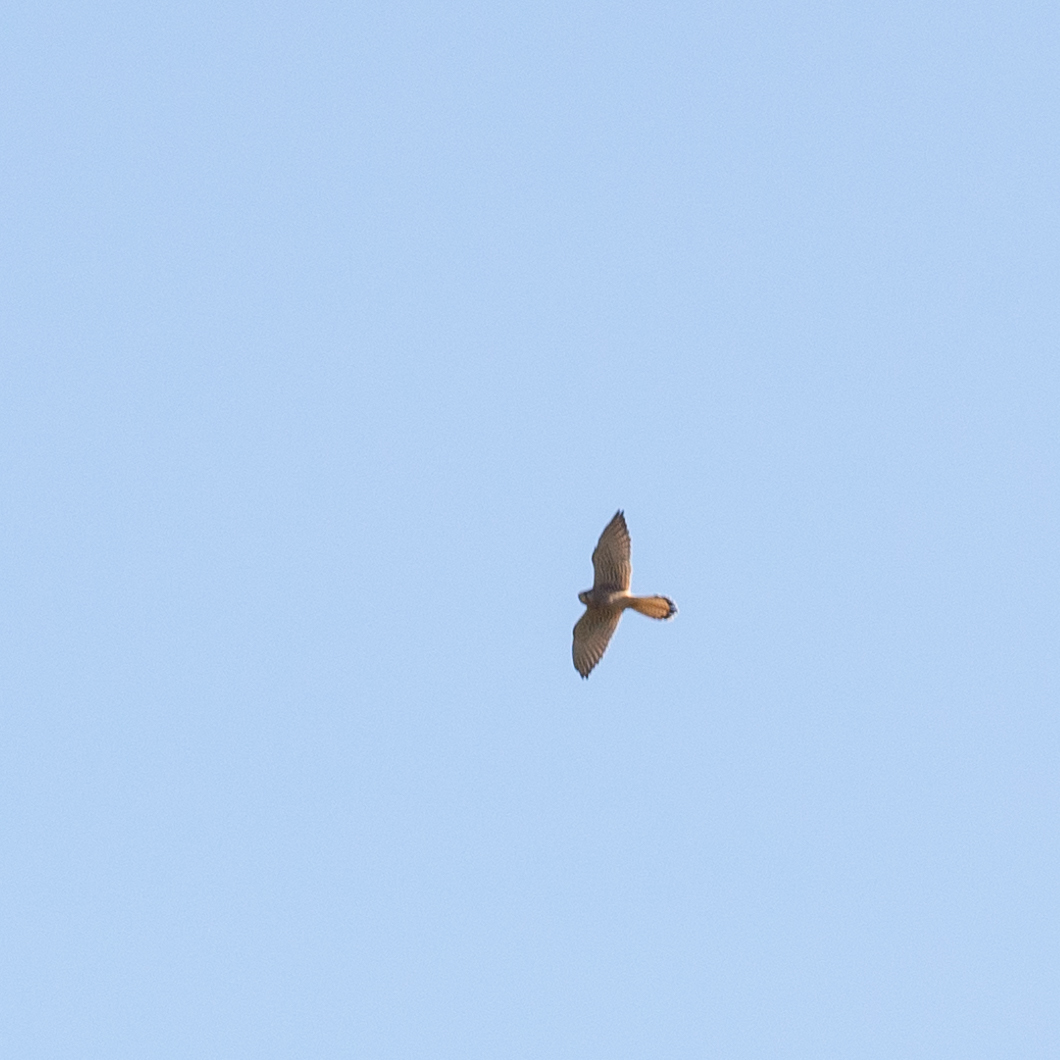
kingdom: Animalia
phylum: Chordata
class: Aves
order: Falconiformes
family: Falconidae
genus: Falco
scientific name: Falco tinnunculus
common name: Common kestrel
